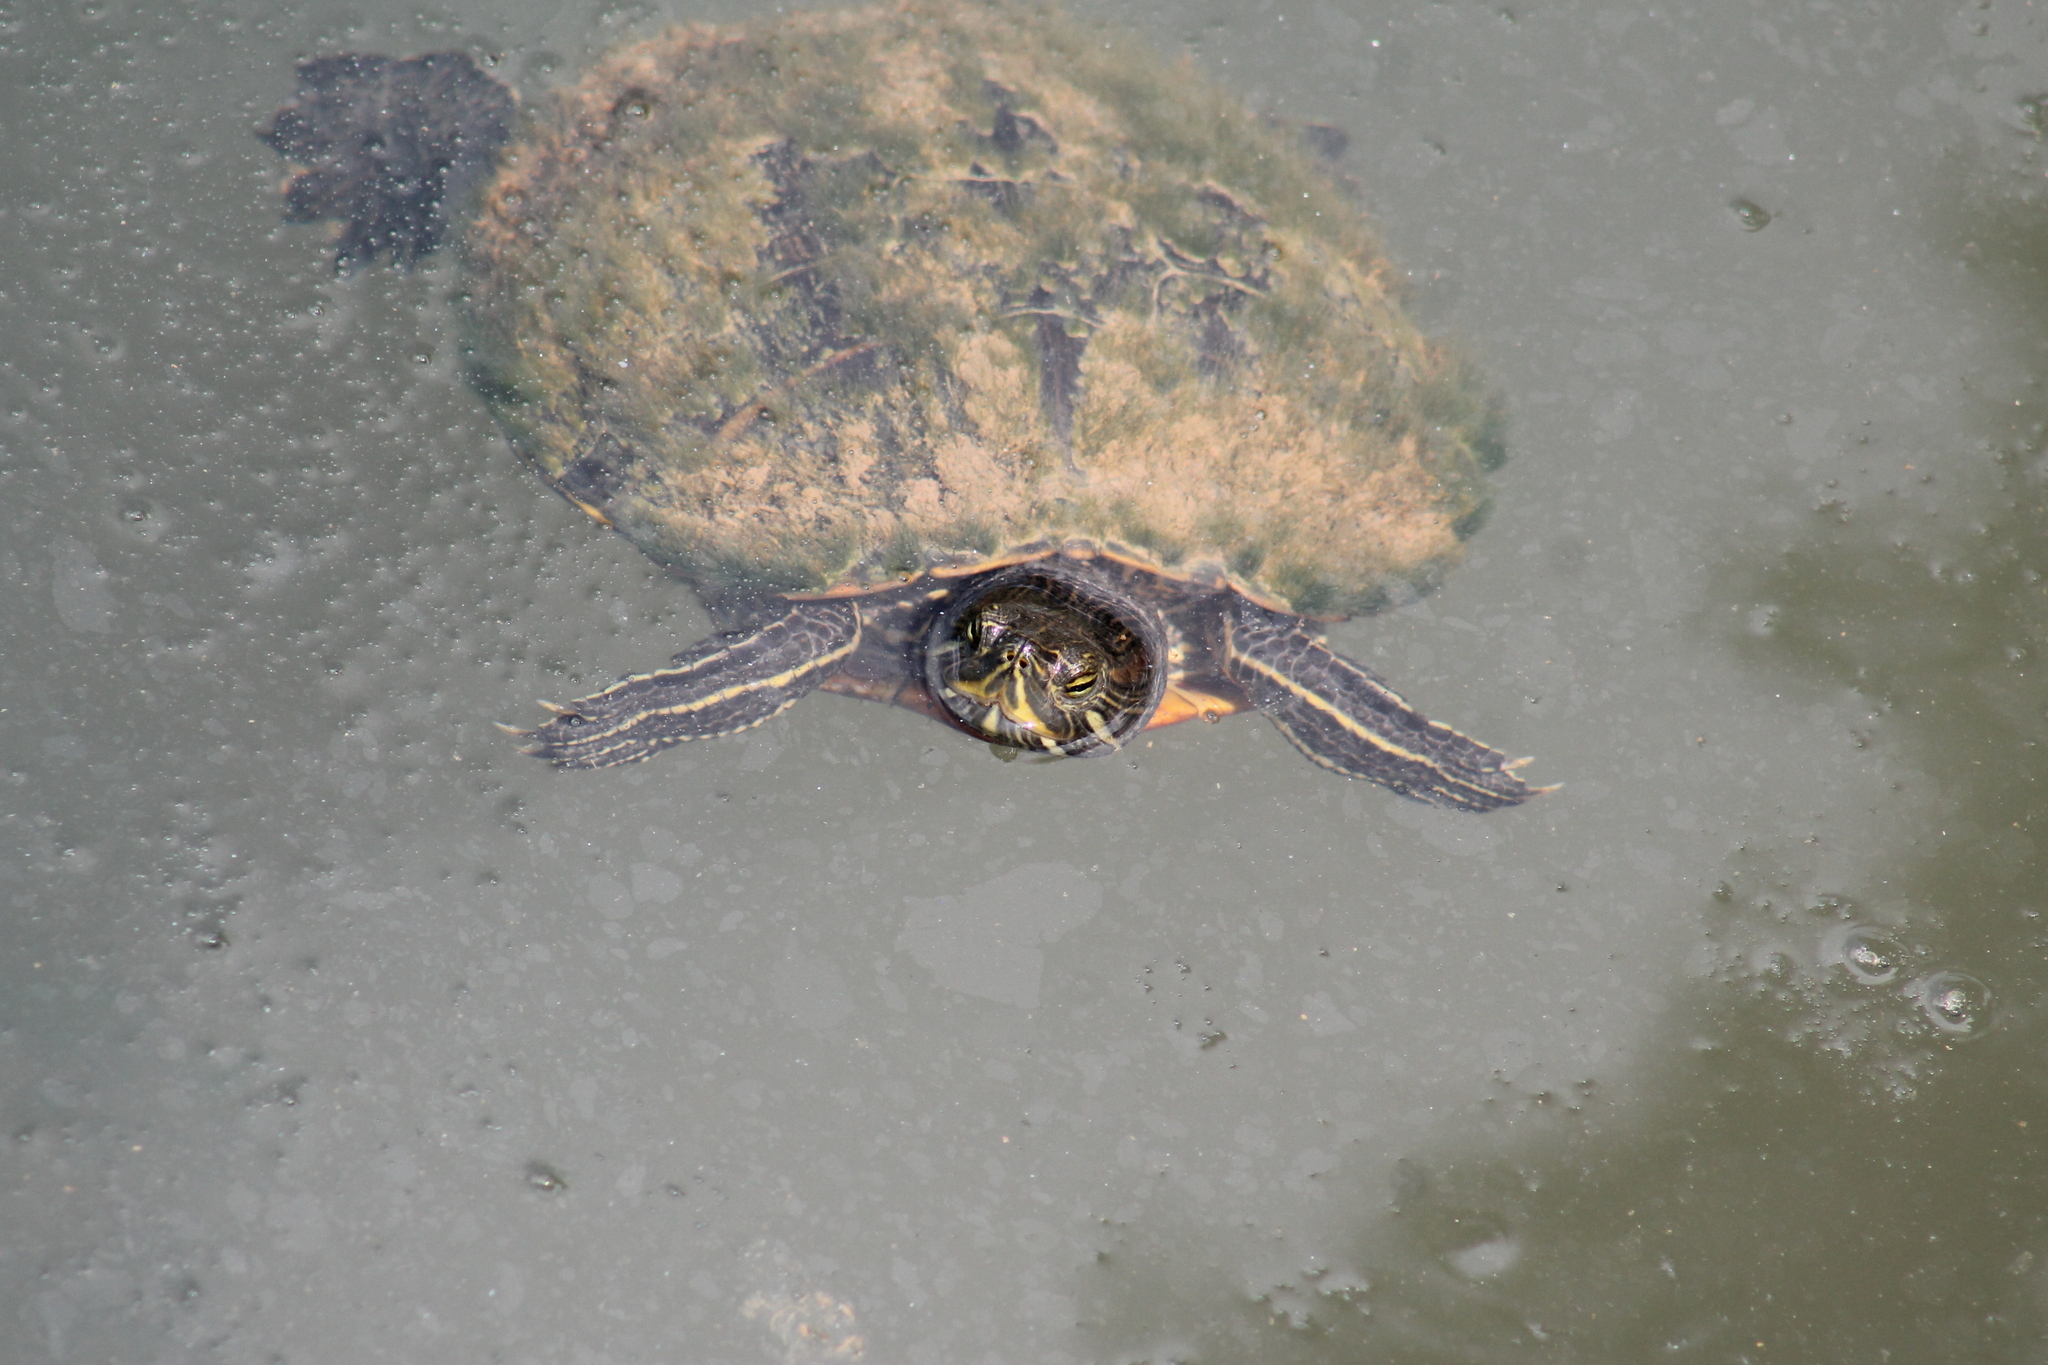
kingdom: Animalia
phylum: Chordata
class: Testudines
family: Emydidae
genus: Trachemys
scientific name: Trachemys scripta
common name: Slider
